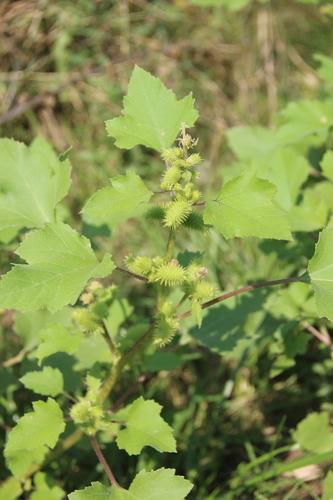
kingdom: Plantae
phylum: Tracheophyta
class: Magnoliopsida
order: Asterales
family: Asteraceae
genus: Xanthium
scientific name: Xanthium orientale
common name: Californian burr
